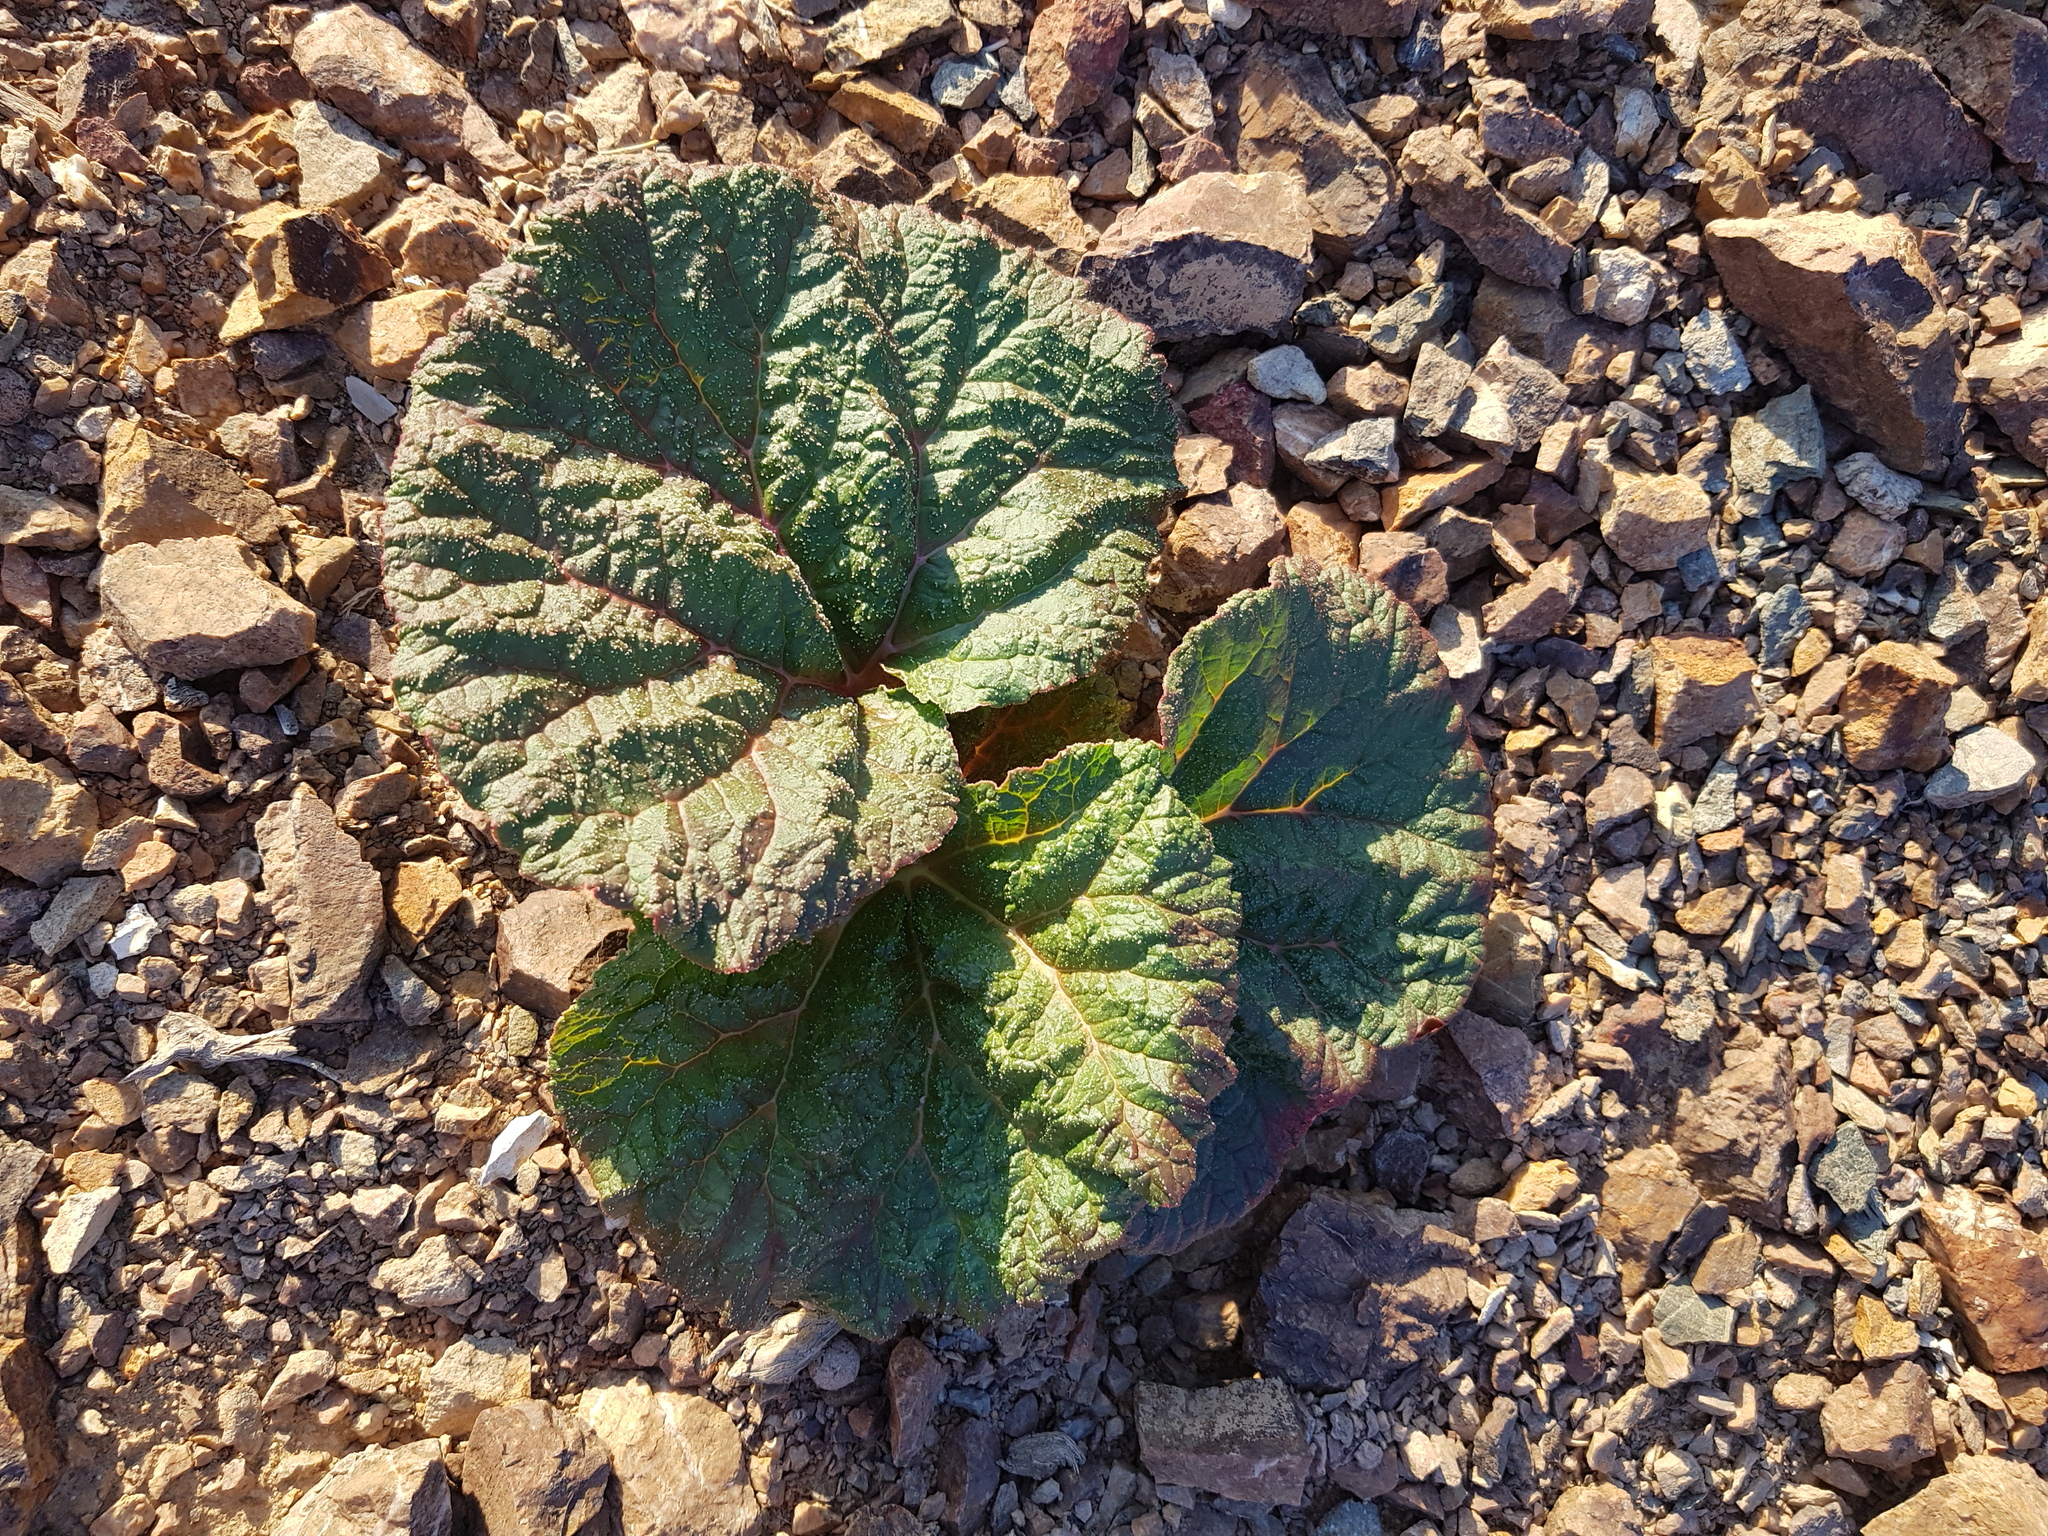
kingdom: Plantae
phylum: Tracheophyta
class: Magnoliopsida
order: Caryophyllales
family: Polygonaceae
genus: Rheum
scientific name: Rheum nanum
